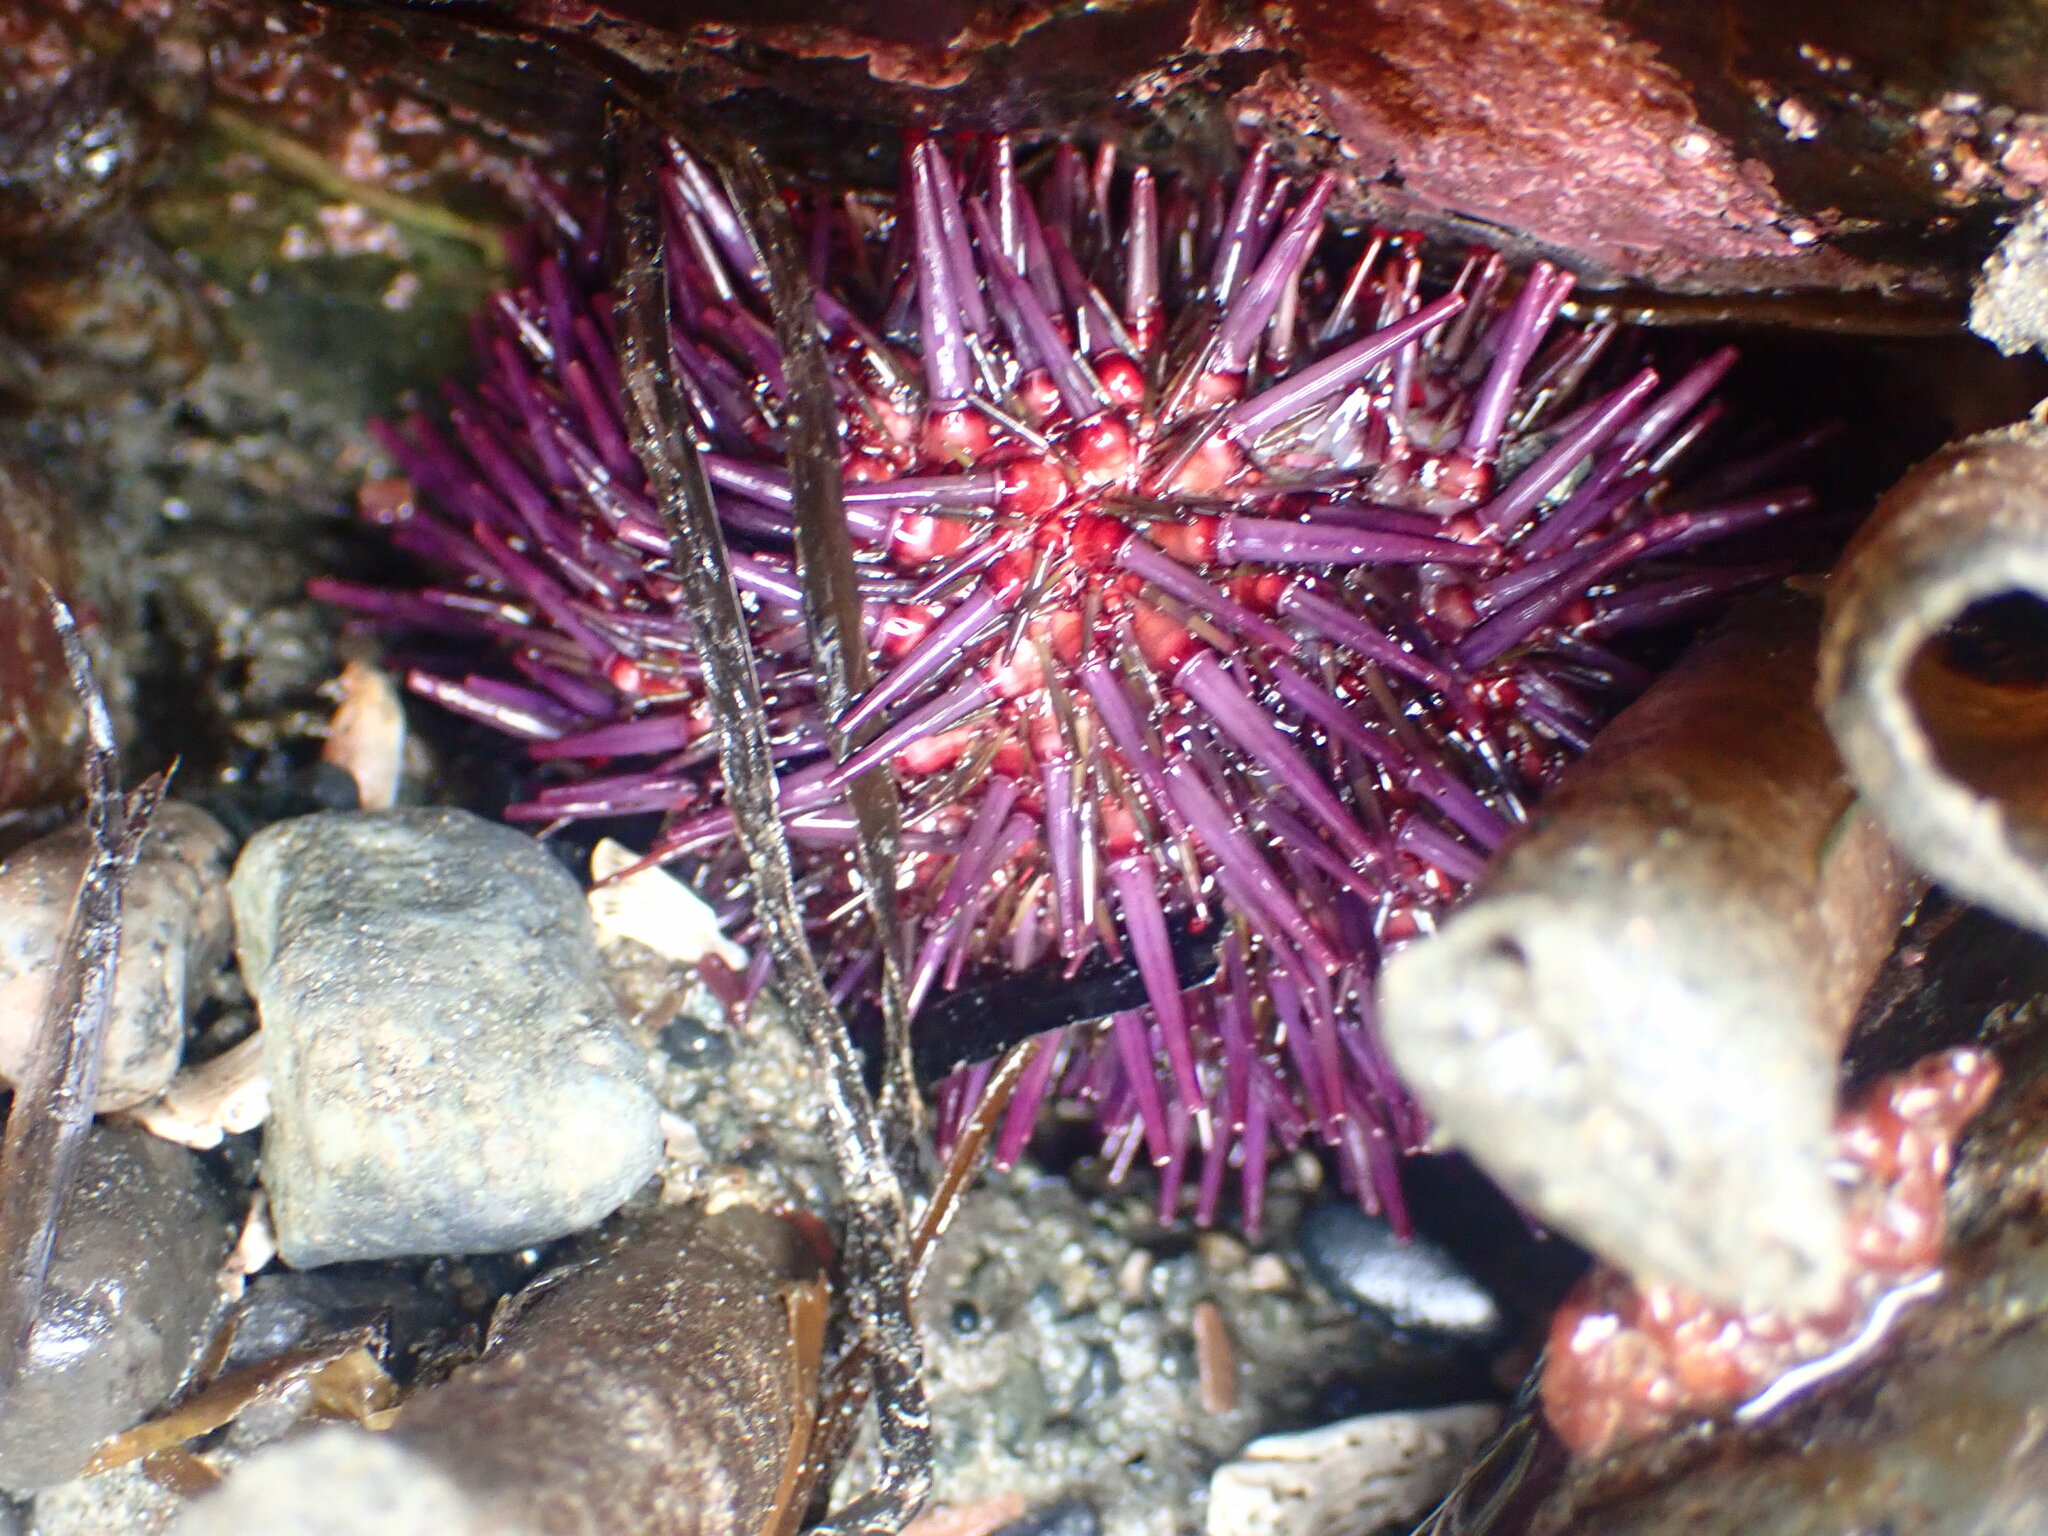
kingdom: Animalia
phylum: Echinodermata
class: Echinoidea
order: Camarodonta
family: Strongylocentrotidae
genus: Strongylocentrotus
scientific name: Strongylocentrotus purpuratus
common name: Purple sea urchin
